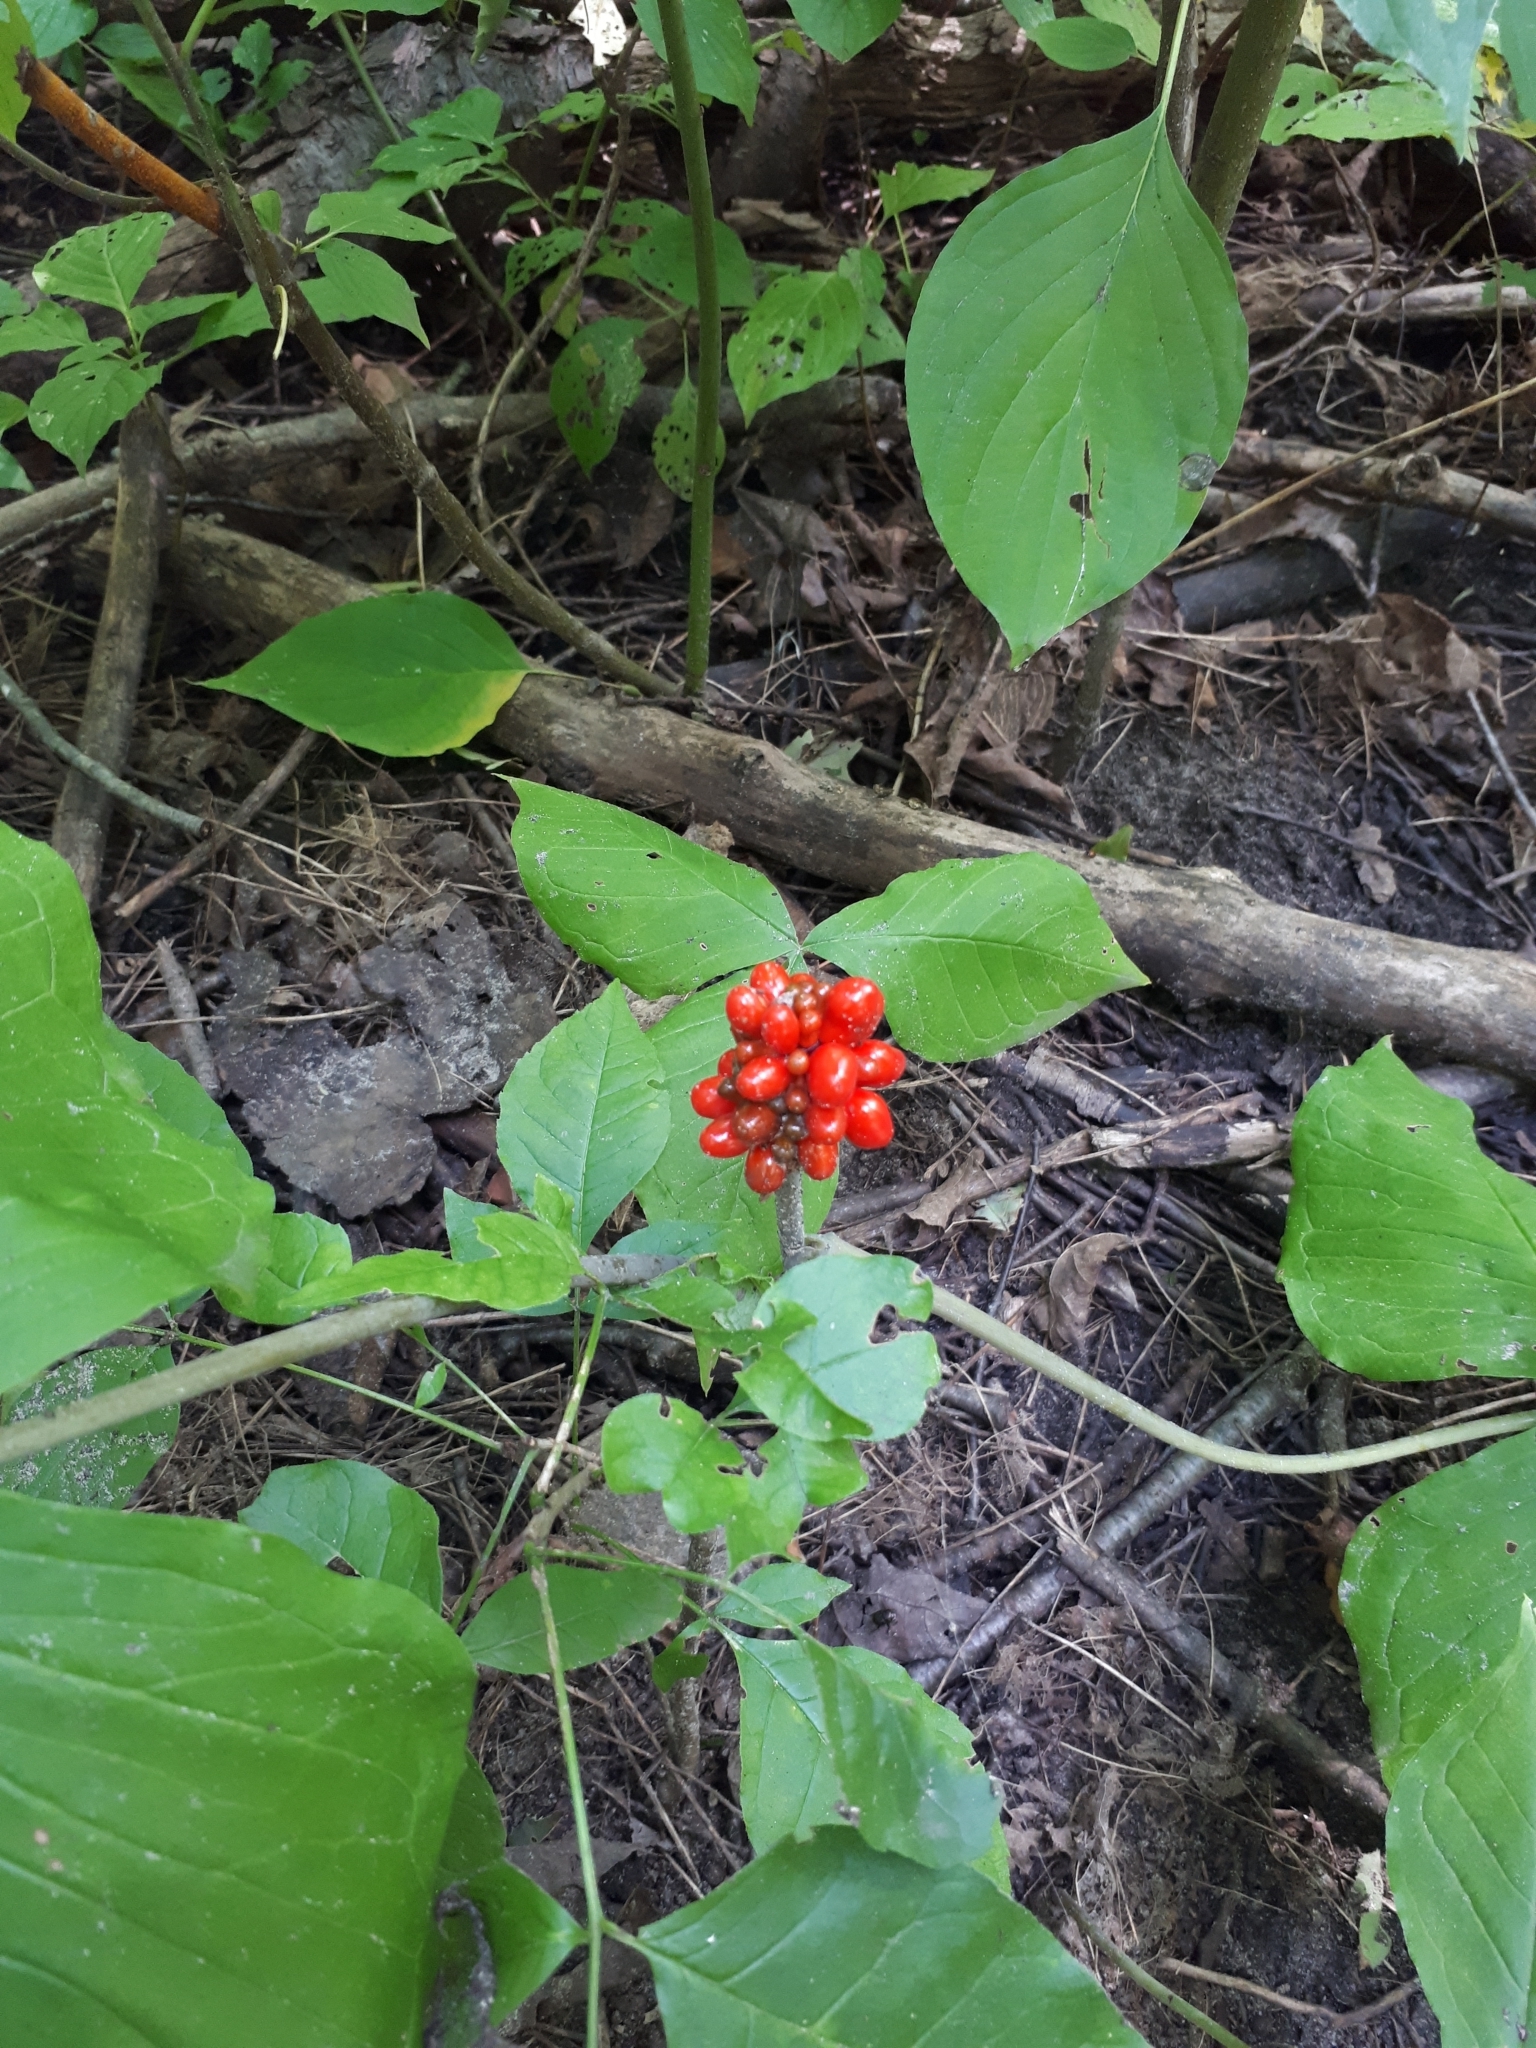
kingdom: Plantae
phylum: Tracheophyta
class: Liliopsida
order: Alismatales
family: Araceae
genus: Arisaema
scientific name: Arisaema triphyllum
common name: Jack-in-the-pulpit
